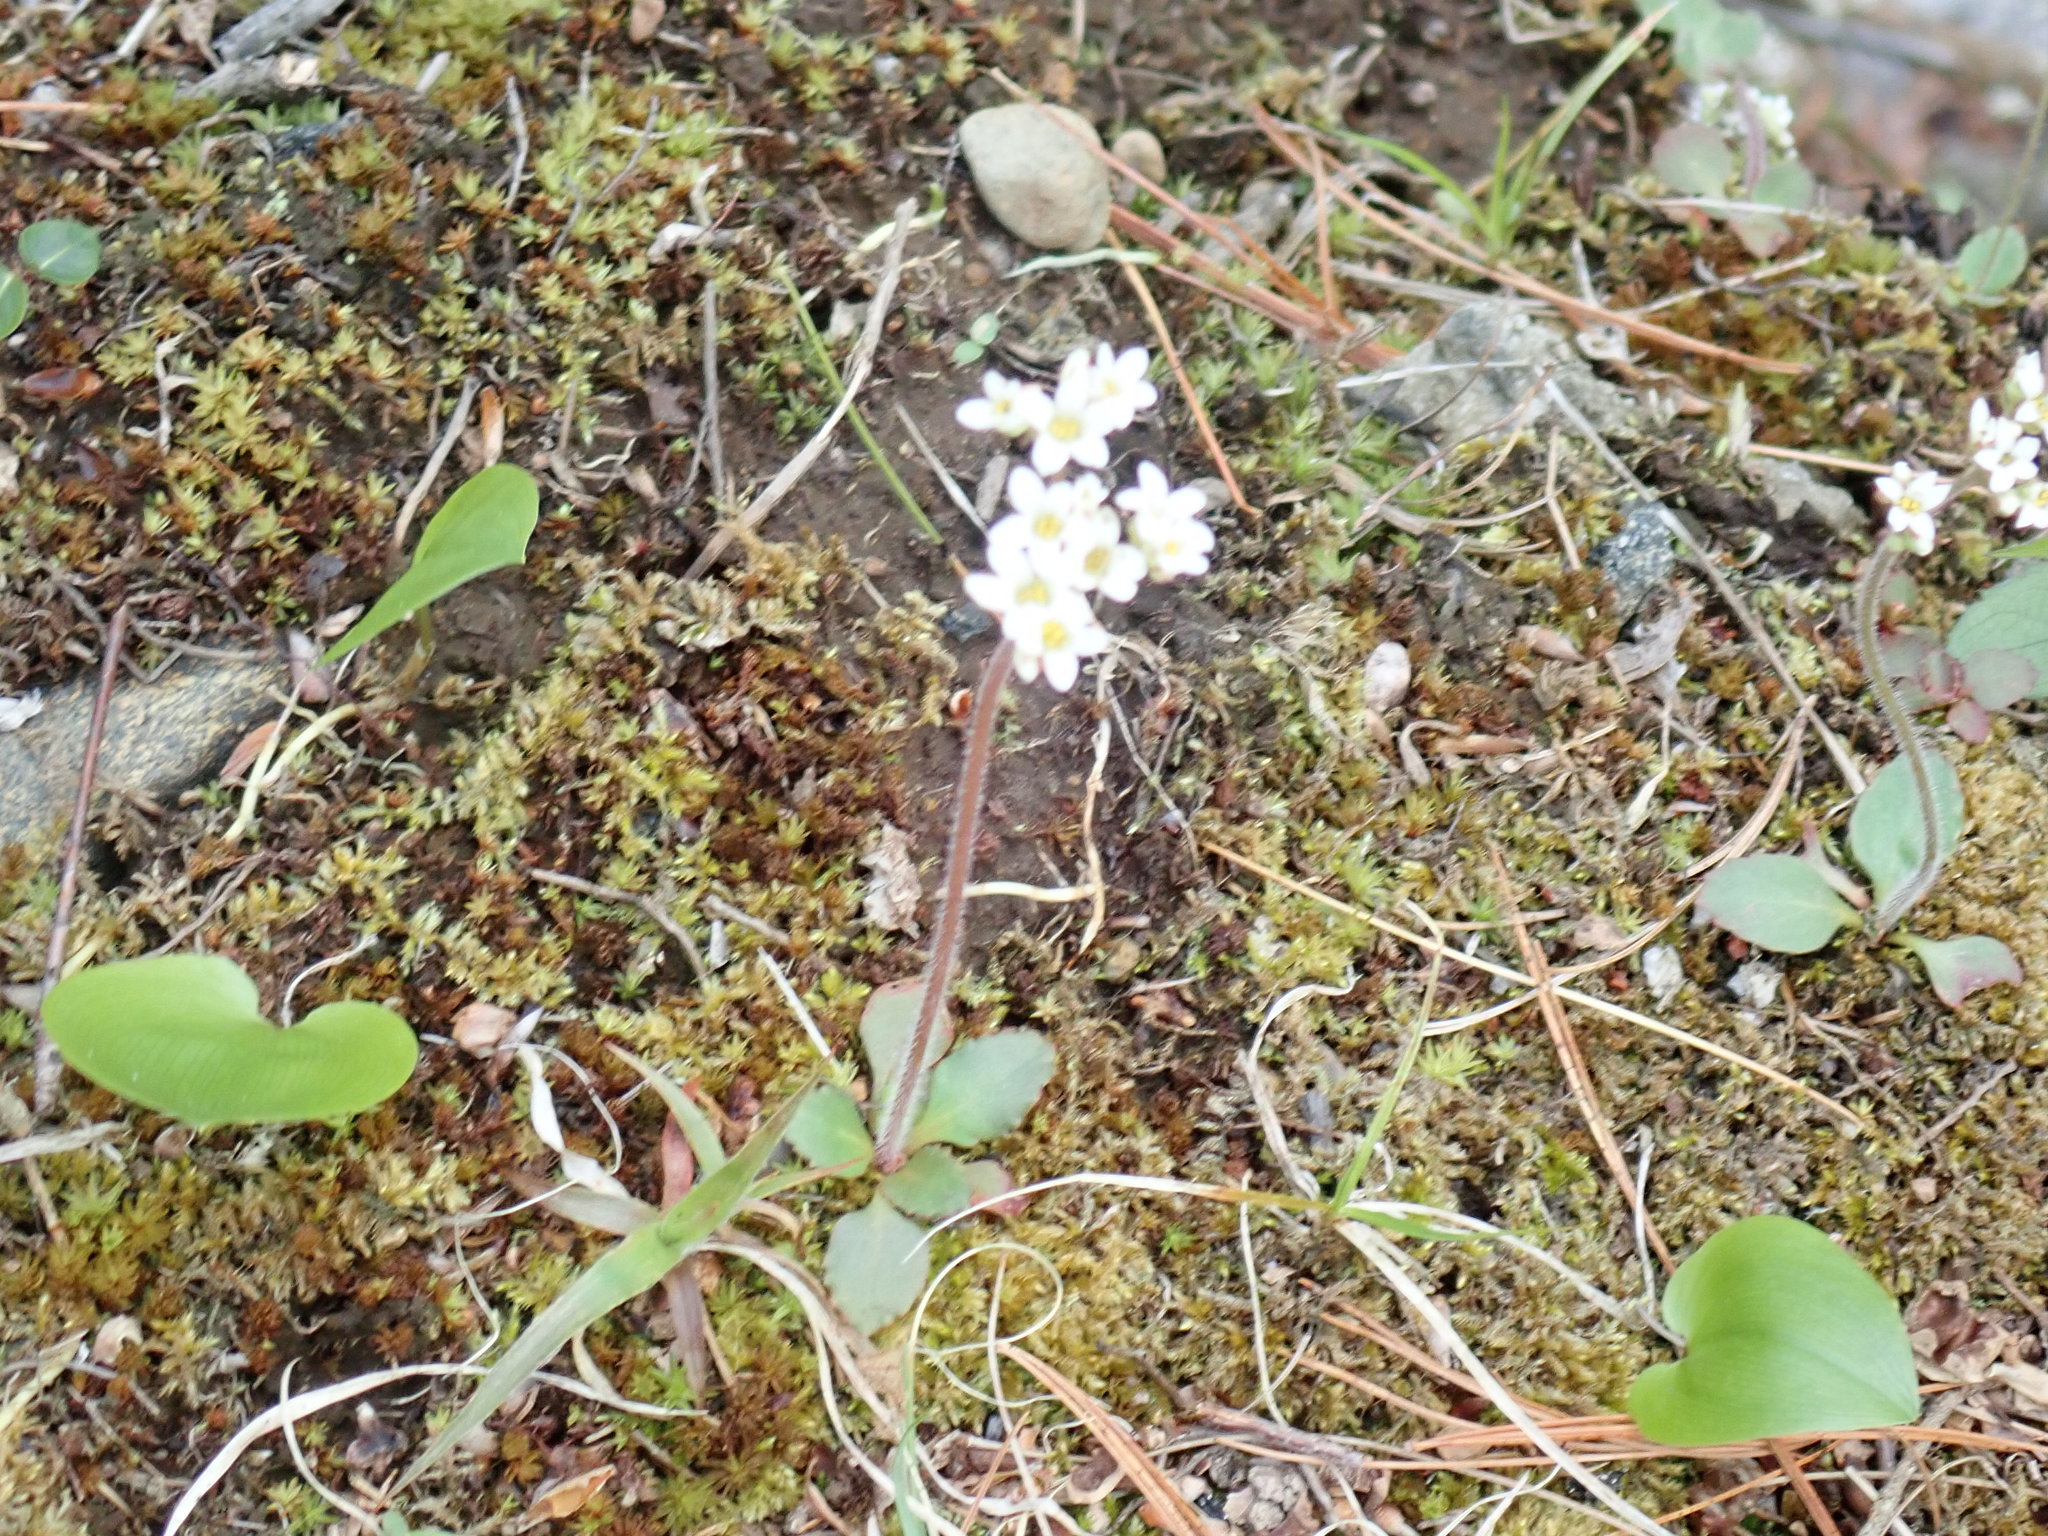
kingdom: Plantae
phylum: Tracheophyta
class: Magnoliopsida
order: Saxifragales
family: Saxifragaceae
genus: Micranthes
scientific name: Micranthes virginiensis
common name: Early saxifrage
